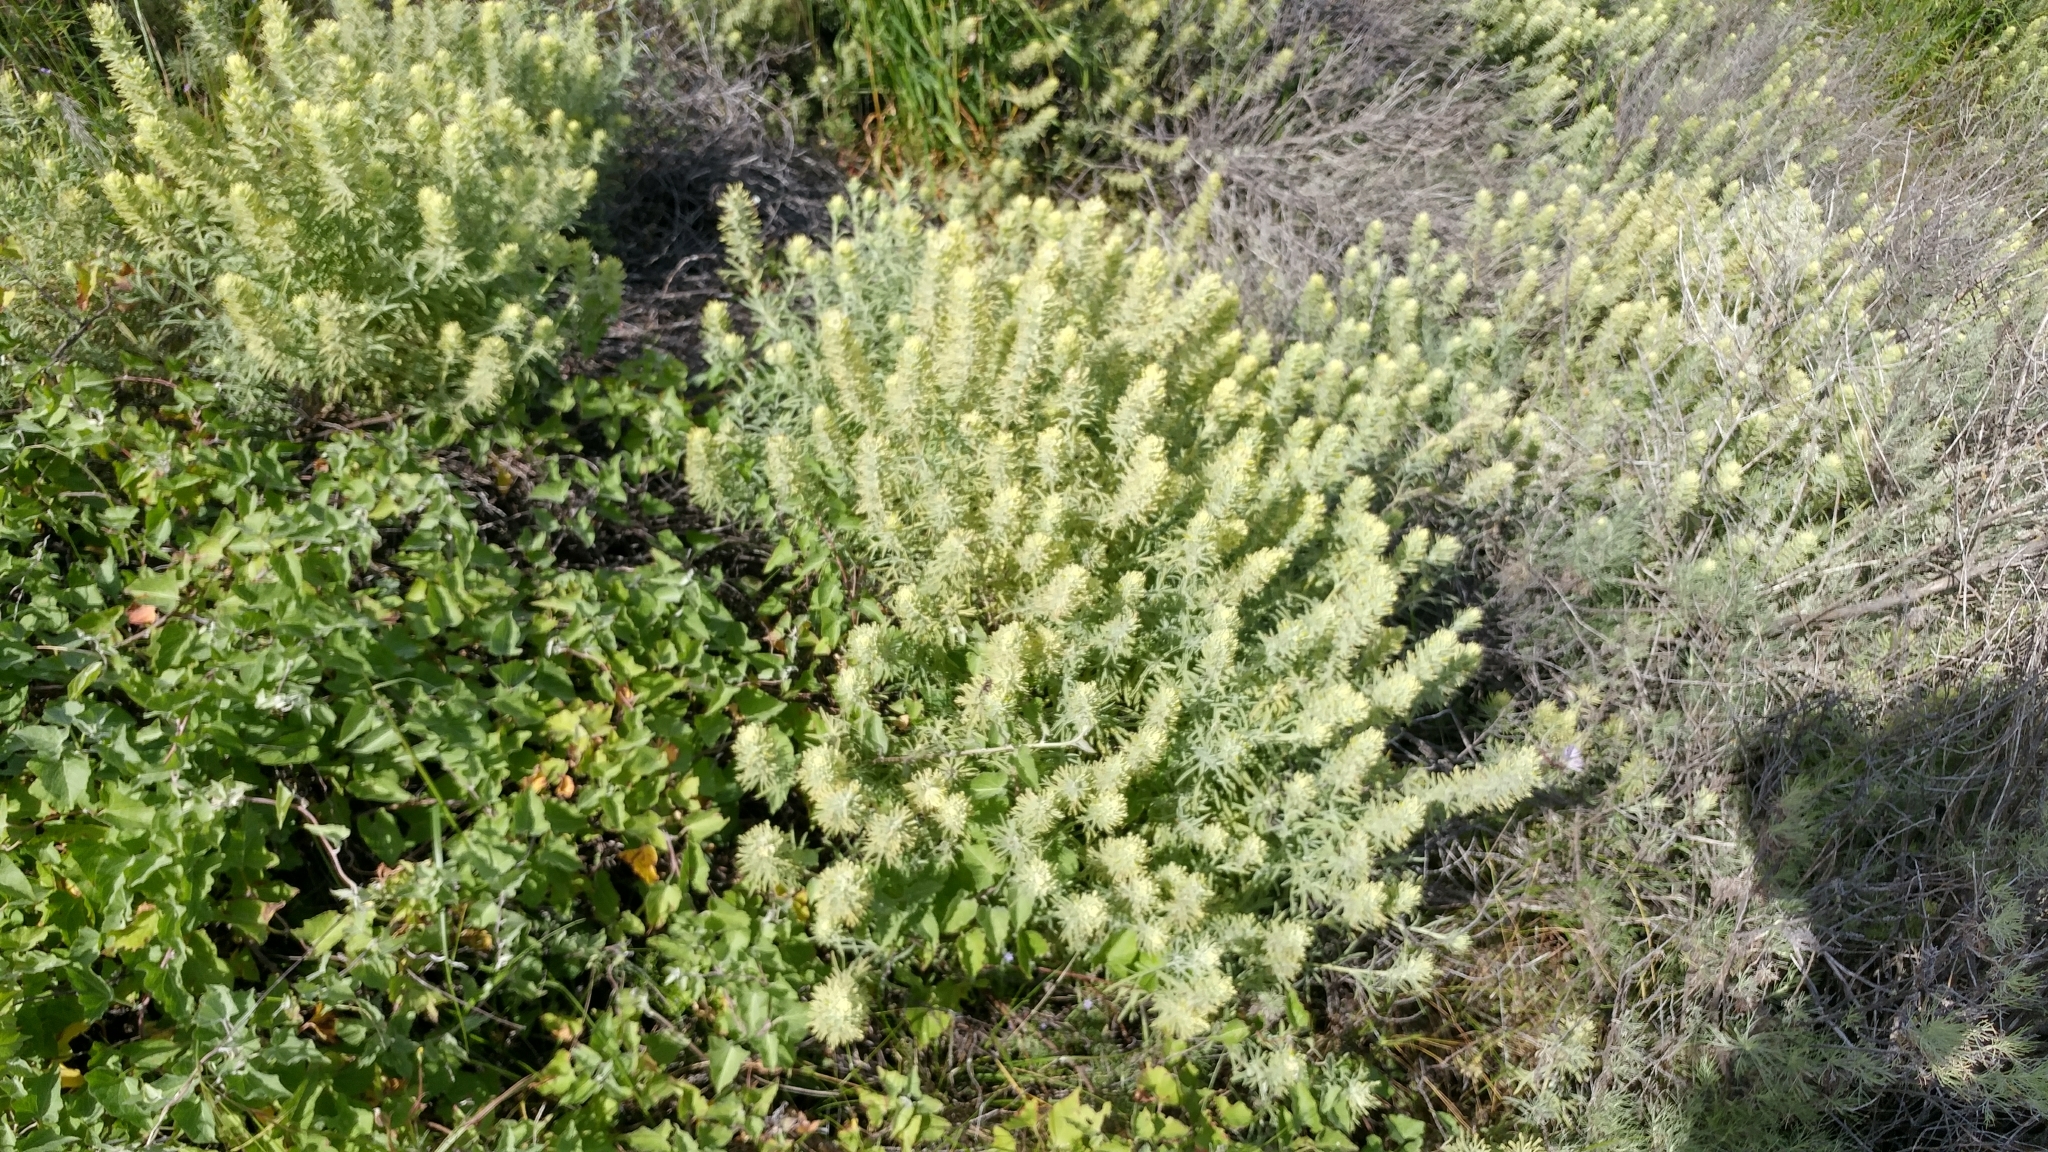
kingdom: Plantae
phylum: Tracheophyta
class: Magnoliopsida
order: Lamiales
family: Orobanchaceae
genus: Castilleja
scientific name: Castilleja grisea
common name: San clemente island indian paintbrush
